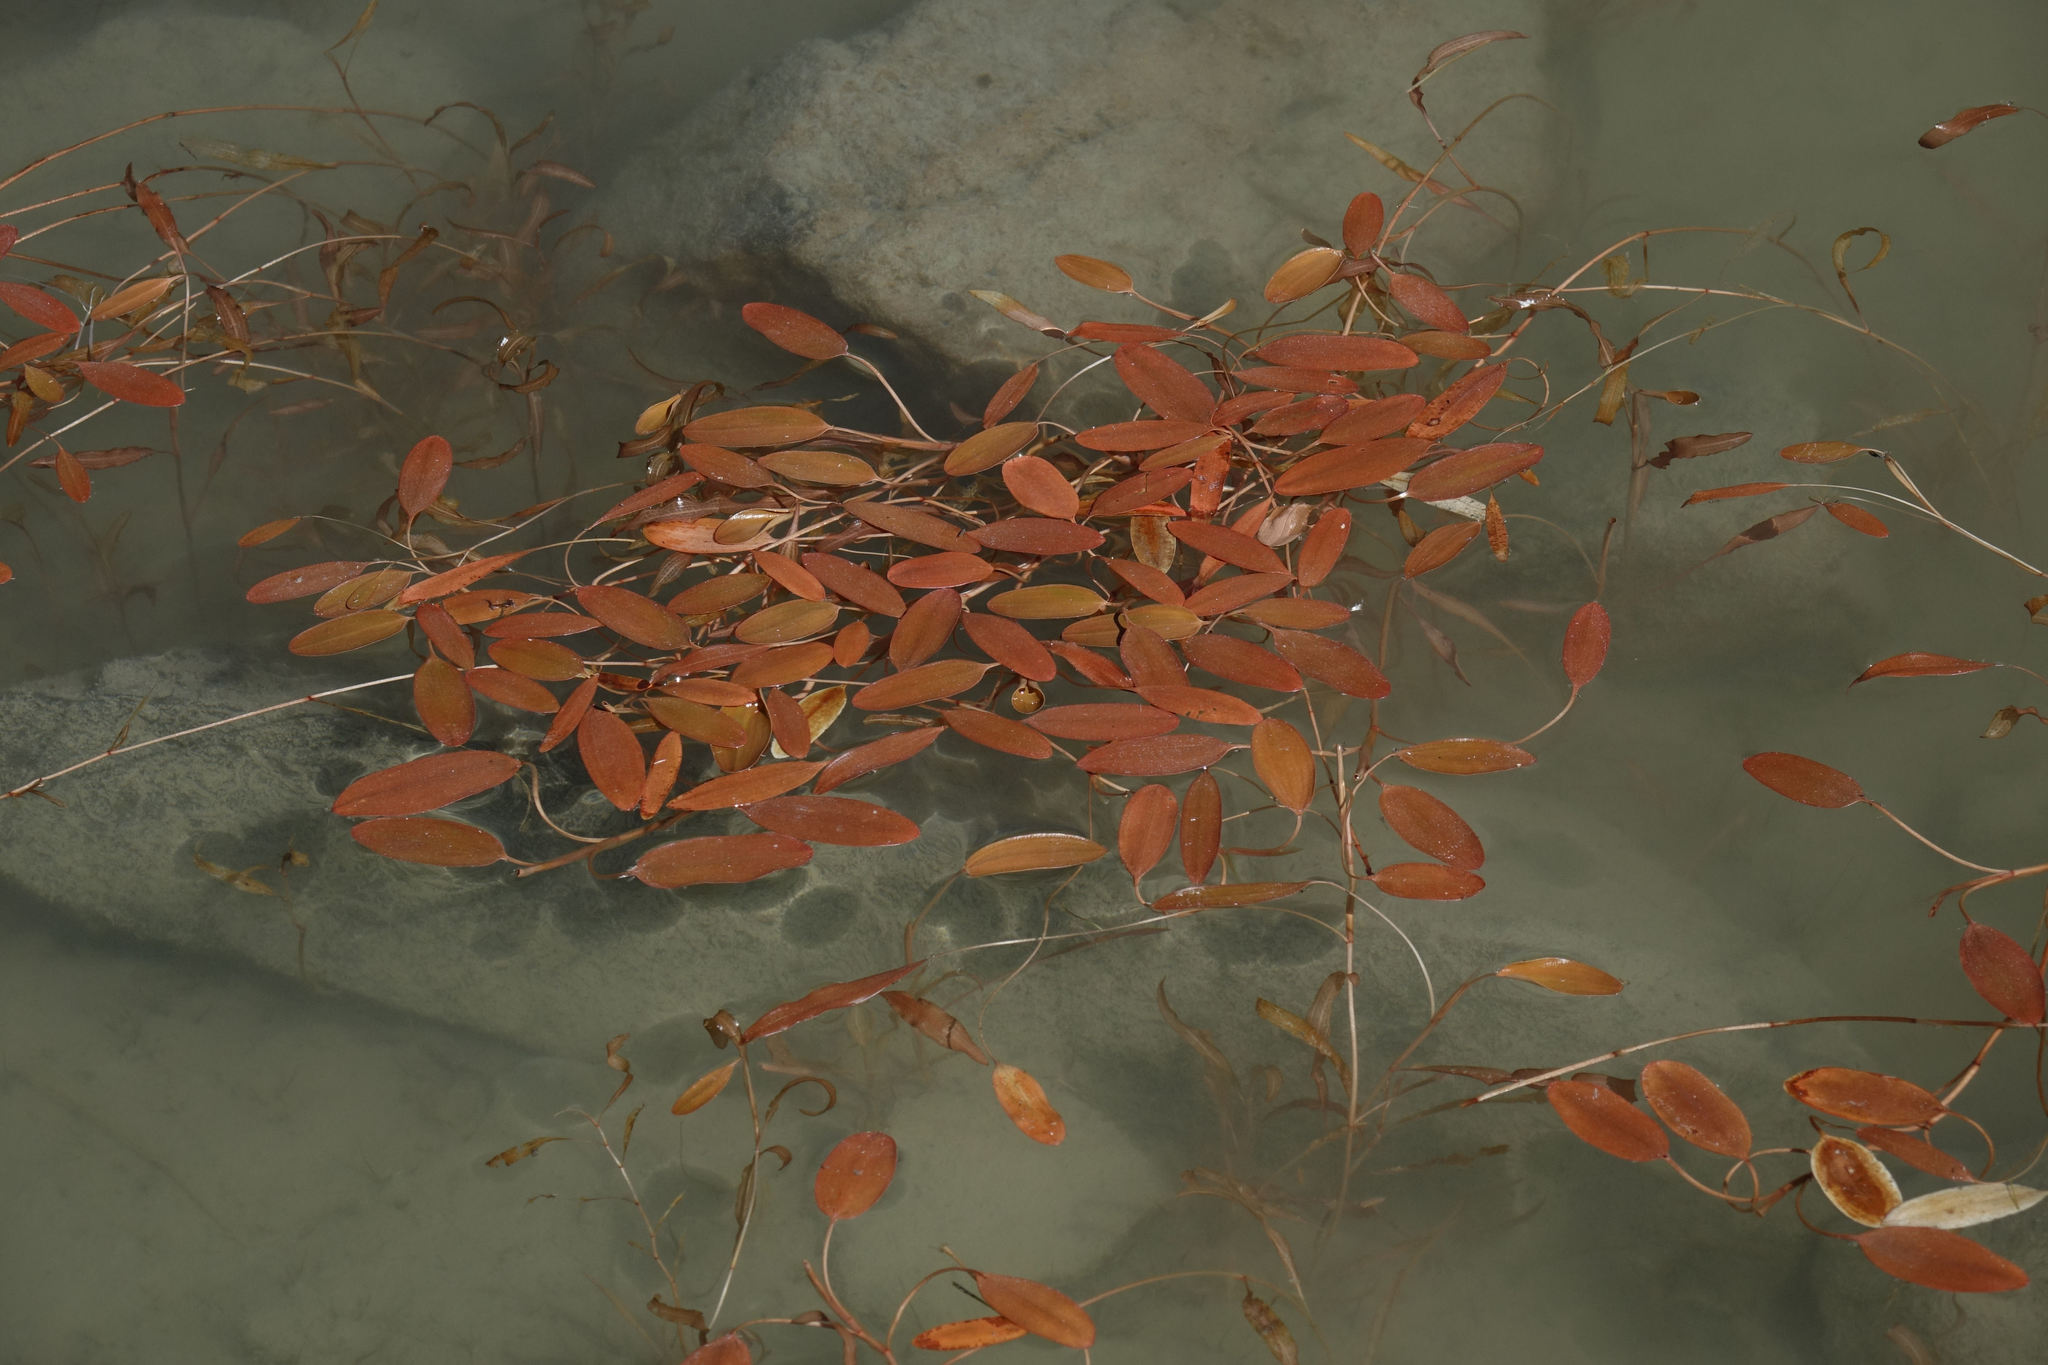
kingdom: Plantae
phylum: Tracheophyta
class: Liliopsida
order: Alismatales
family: Potamogetonaceae
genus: Potamogeton
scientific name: Potamogeton cheesemanii
